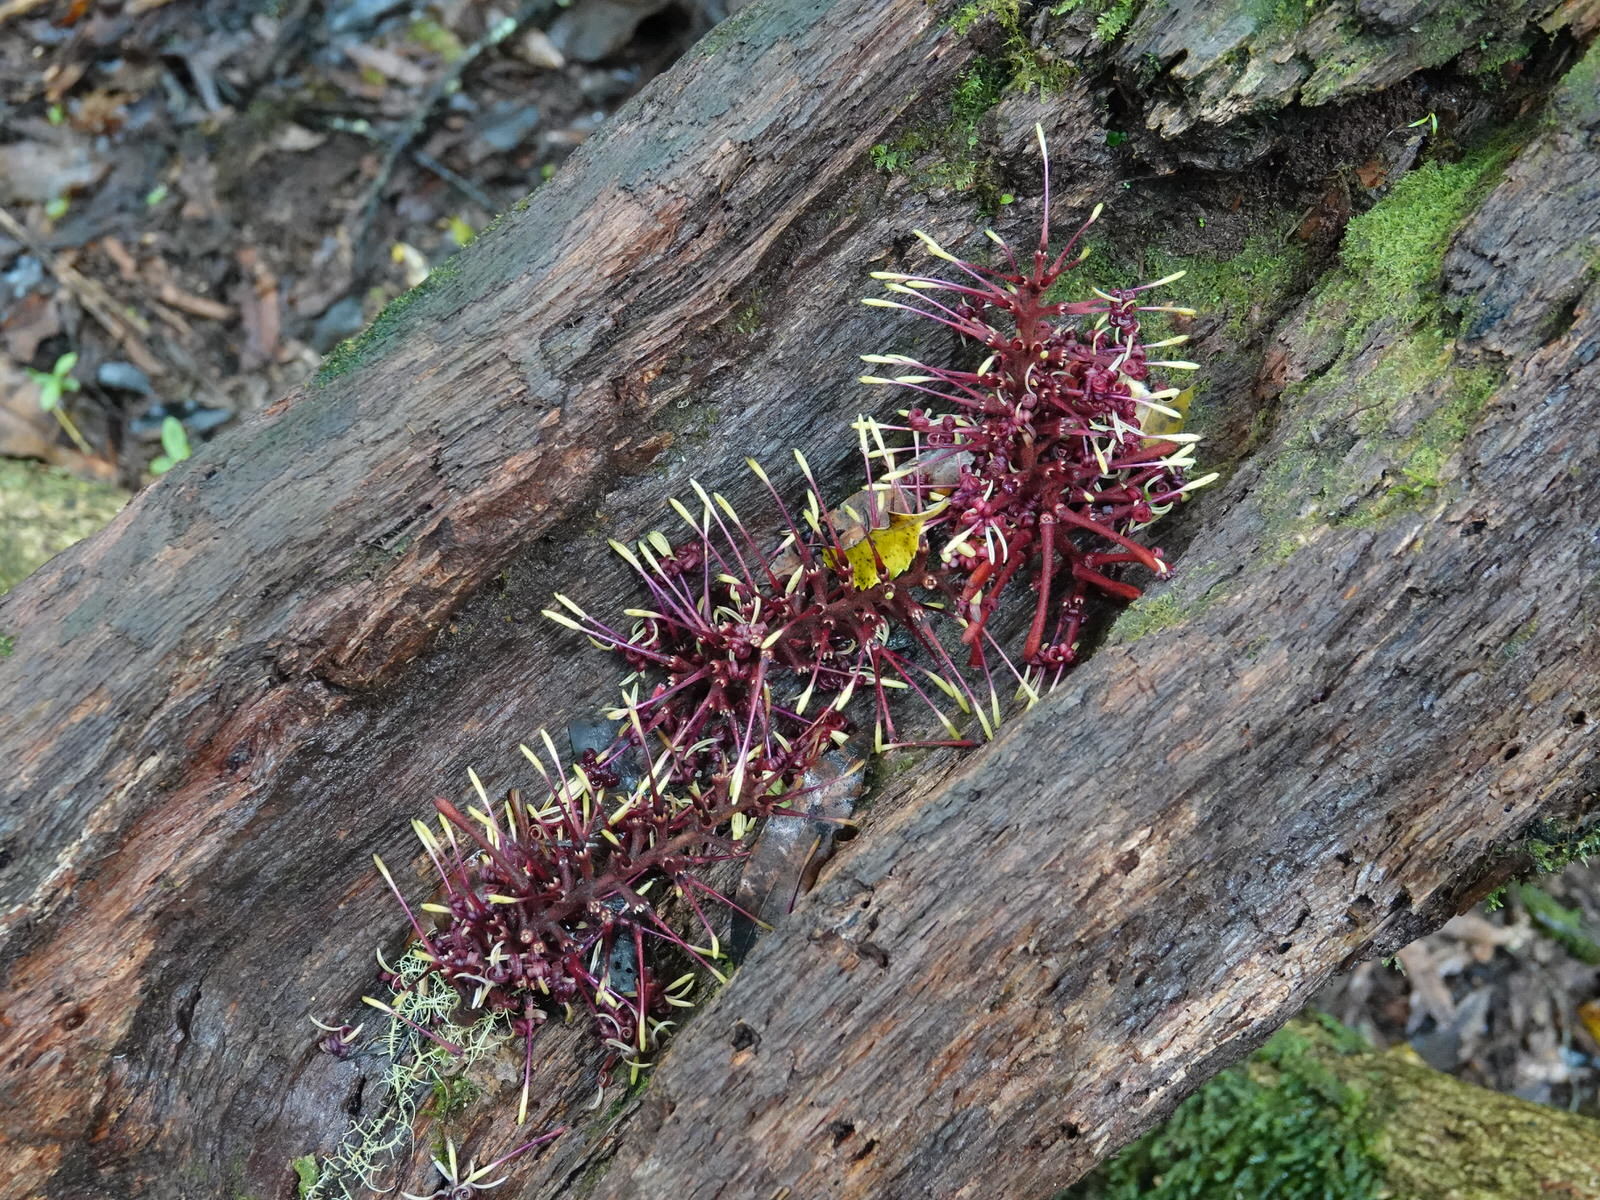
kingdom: Plantae
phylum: Tracheophyta
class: Magnoliopsida
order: Proteales
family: Proteaceae
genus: Knightia
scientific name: Knightia excelsa
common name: New zealand-honeysuckle
